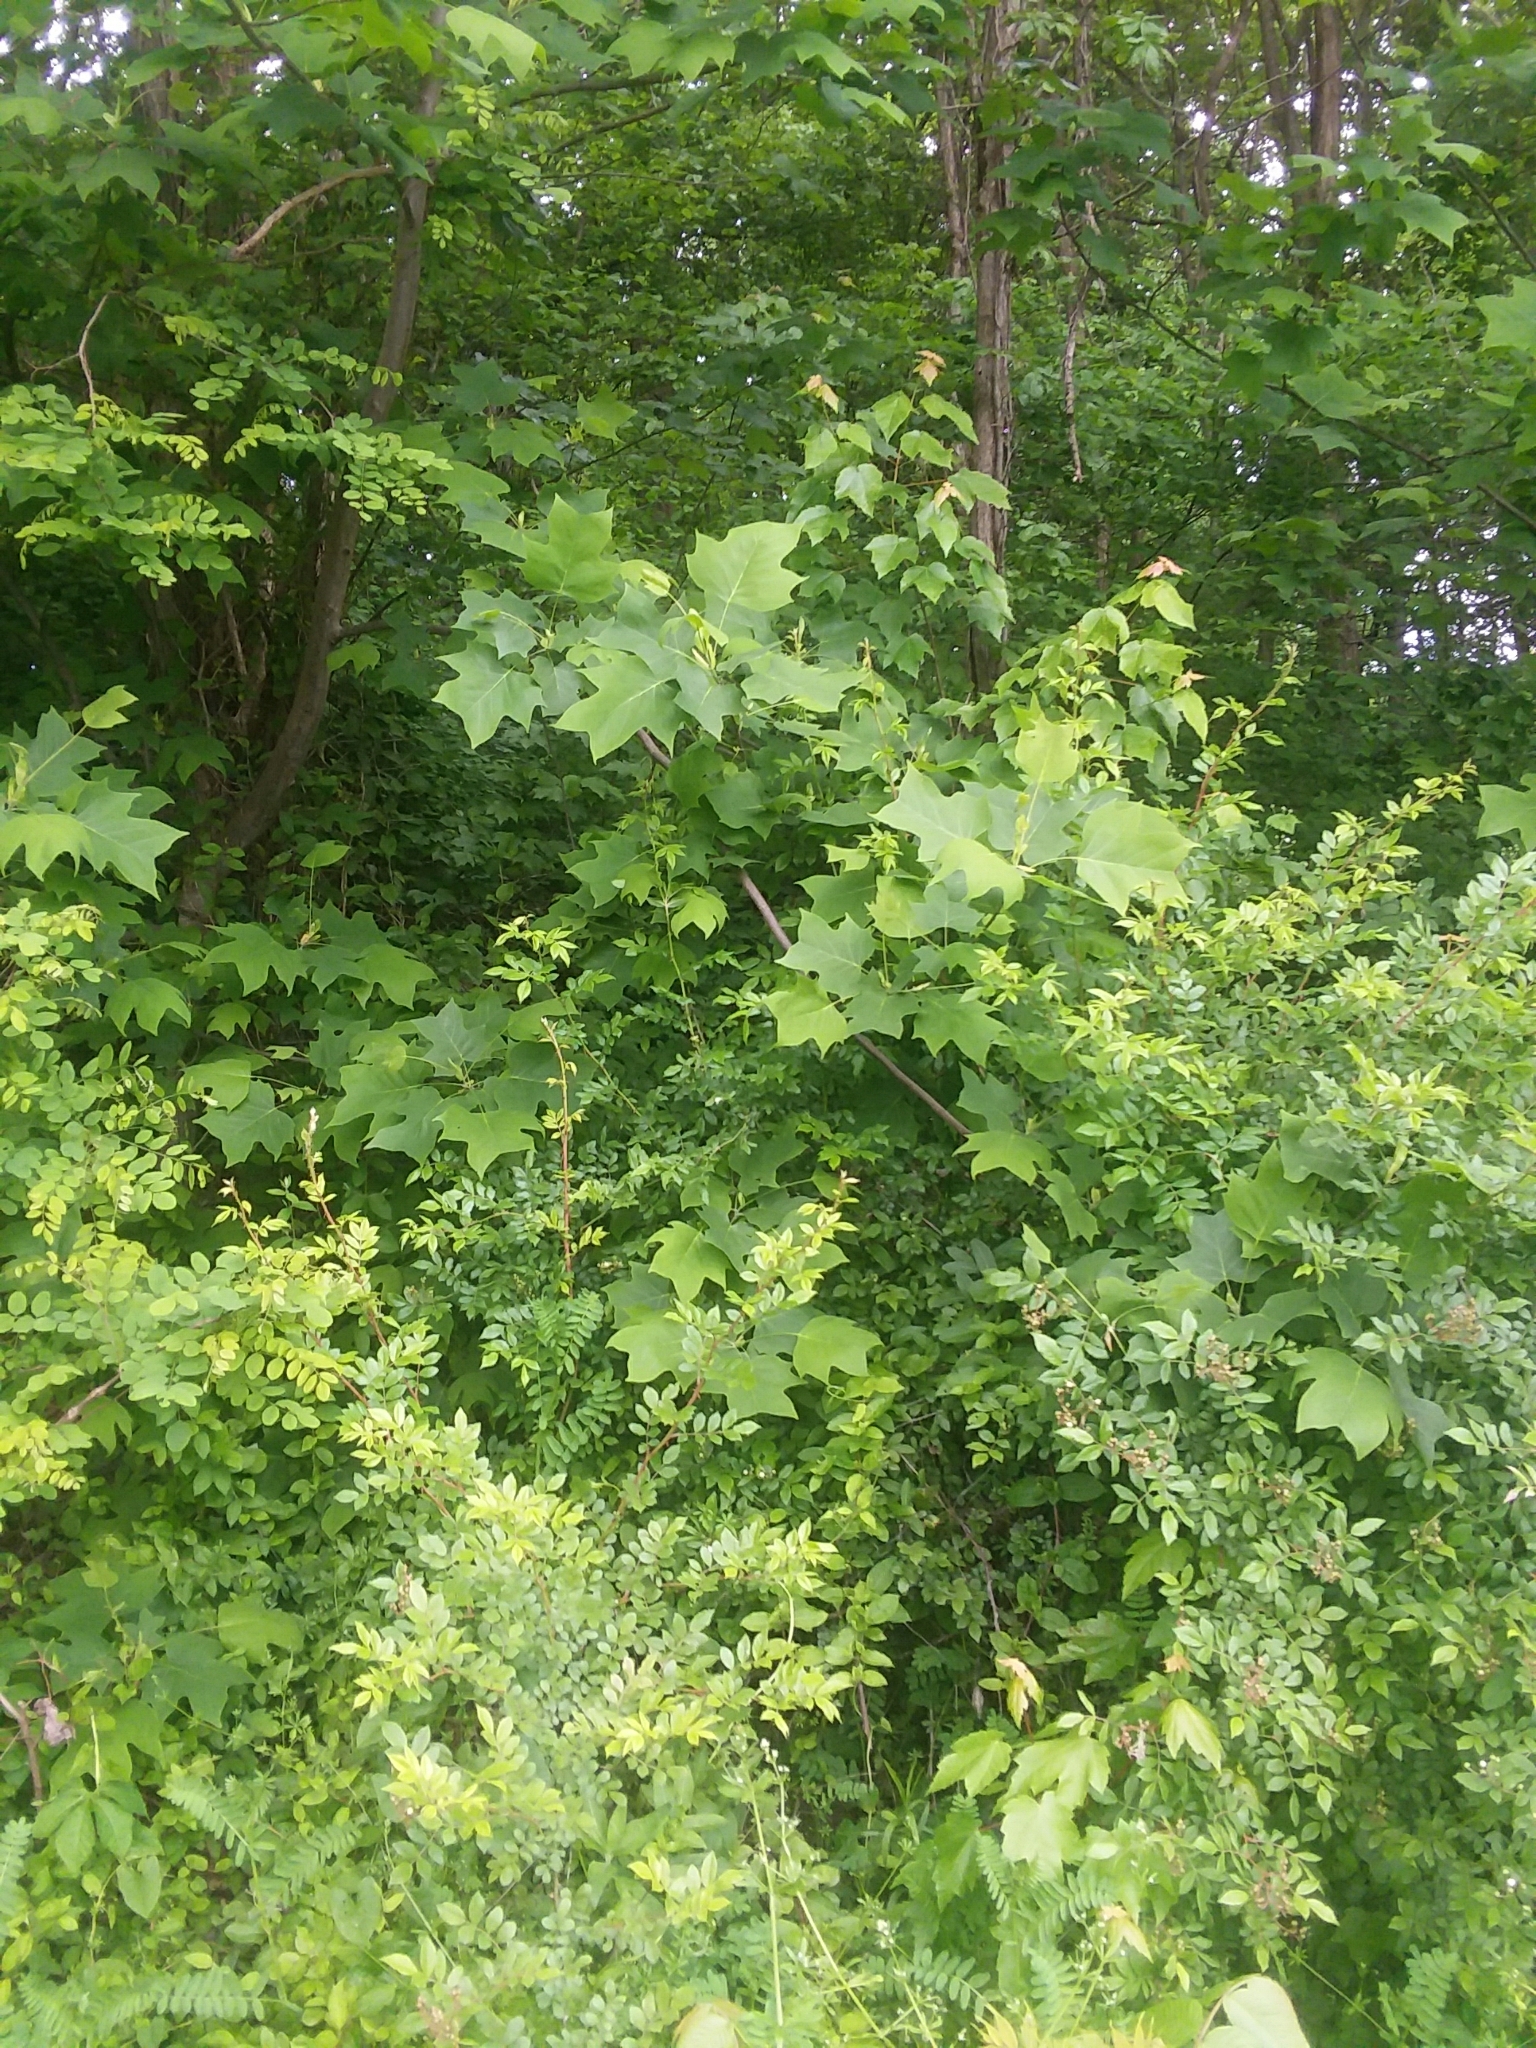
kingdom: Plantae
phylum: Tracheophyta
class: Magnoliopsida
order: Magnoliales
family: Magnoliaceae
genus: Liriodendron
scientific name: Liriodendron tulipifera
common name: Tulip tree
